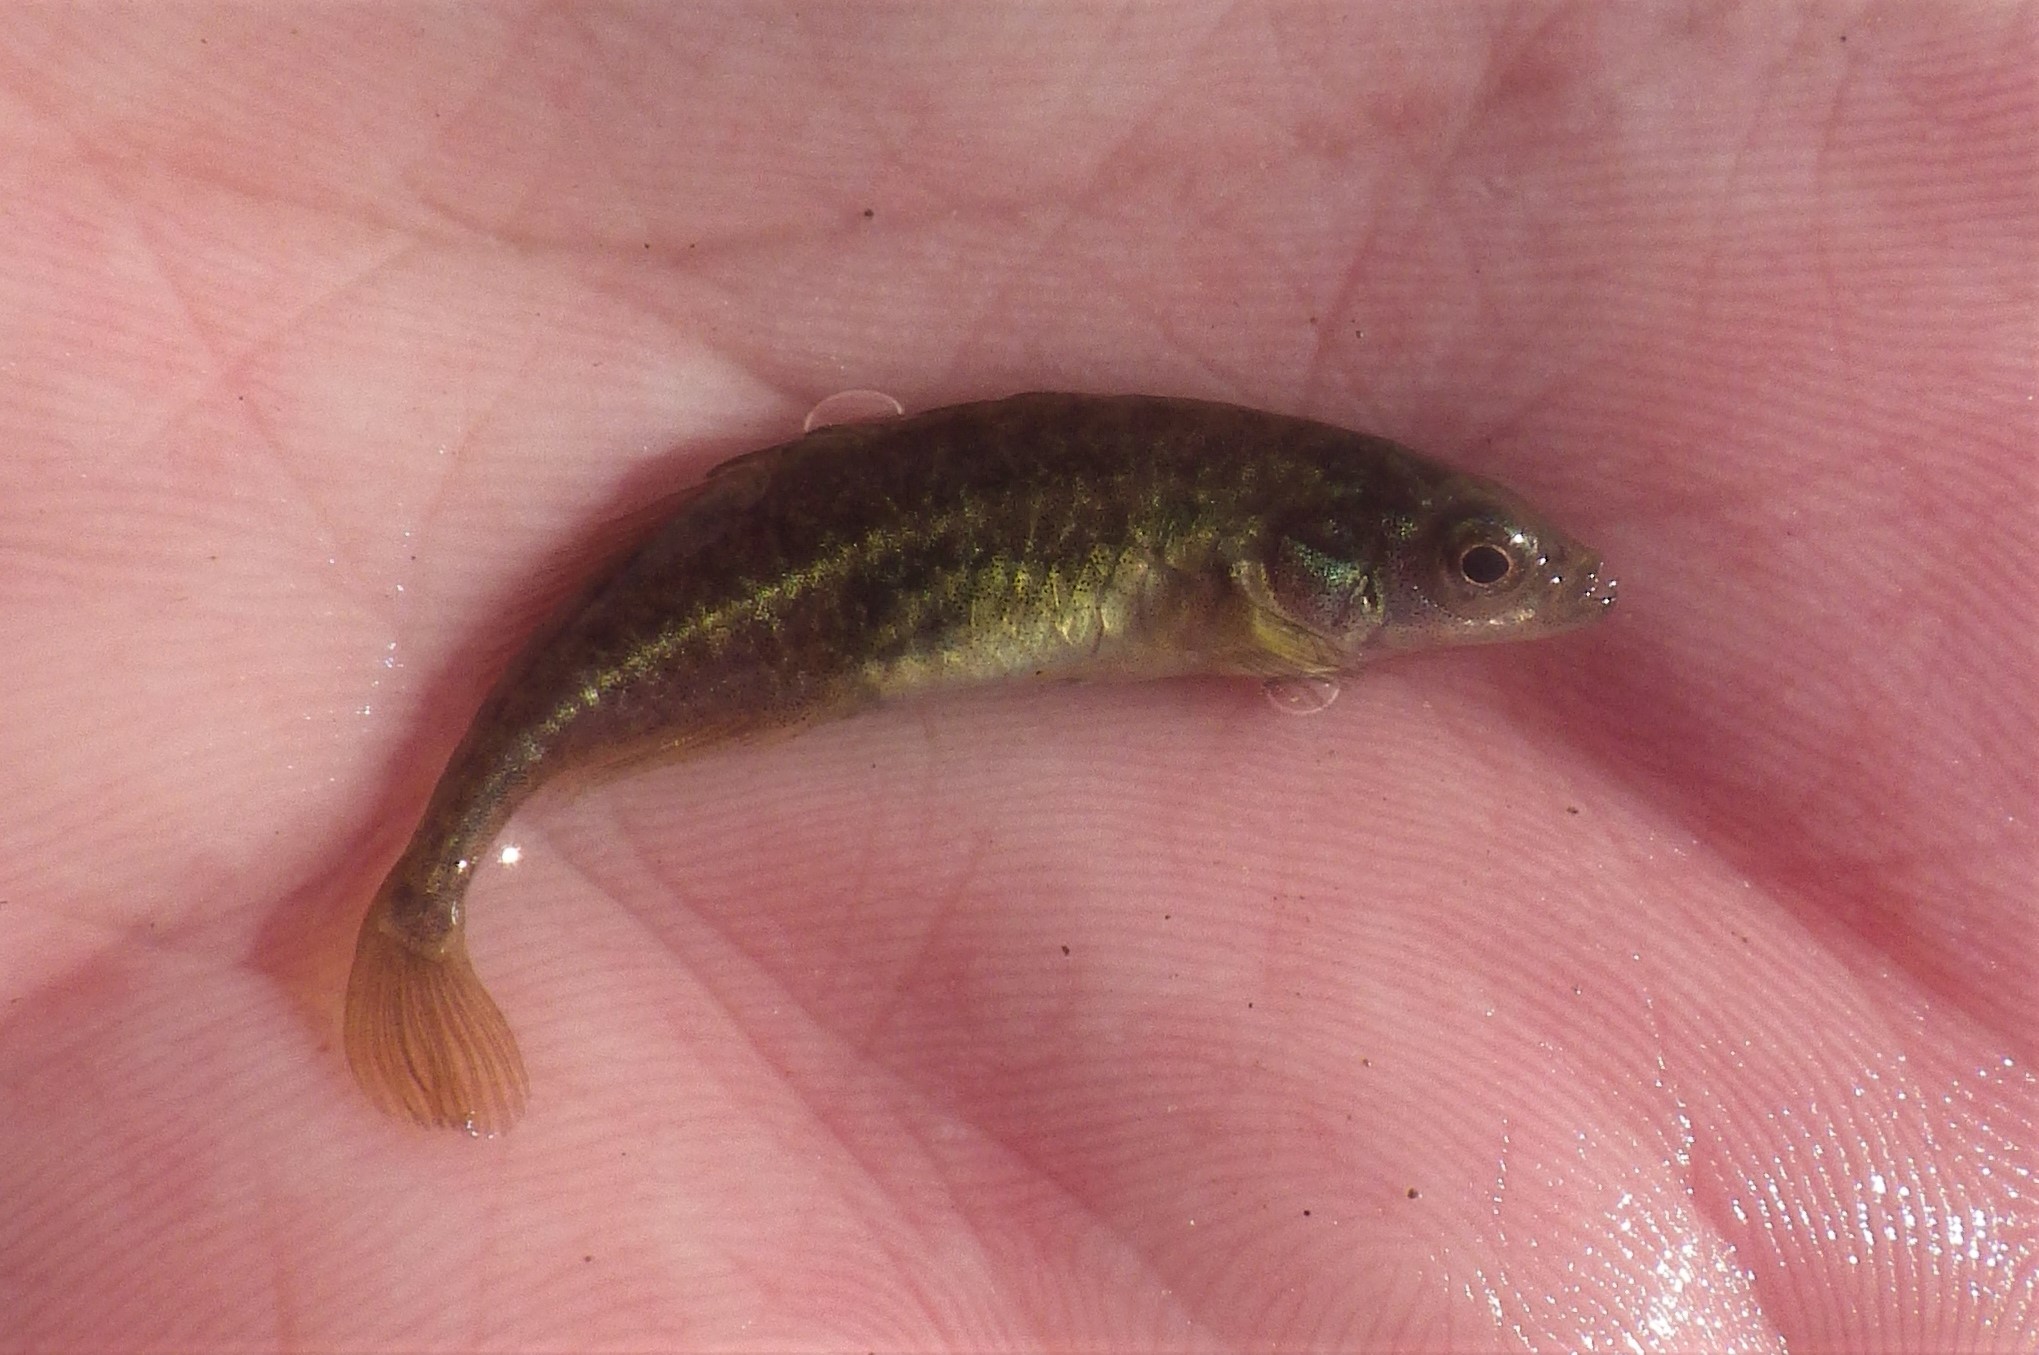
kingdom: Animalia
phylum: Chordata
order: Gasterosteiformes
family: Gasterosteidae
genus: Culaea
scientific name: Culaea inconstans
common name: Brook stickleback
